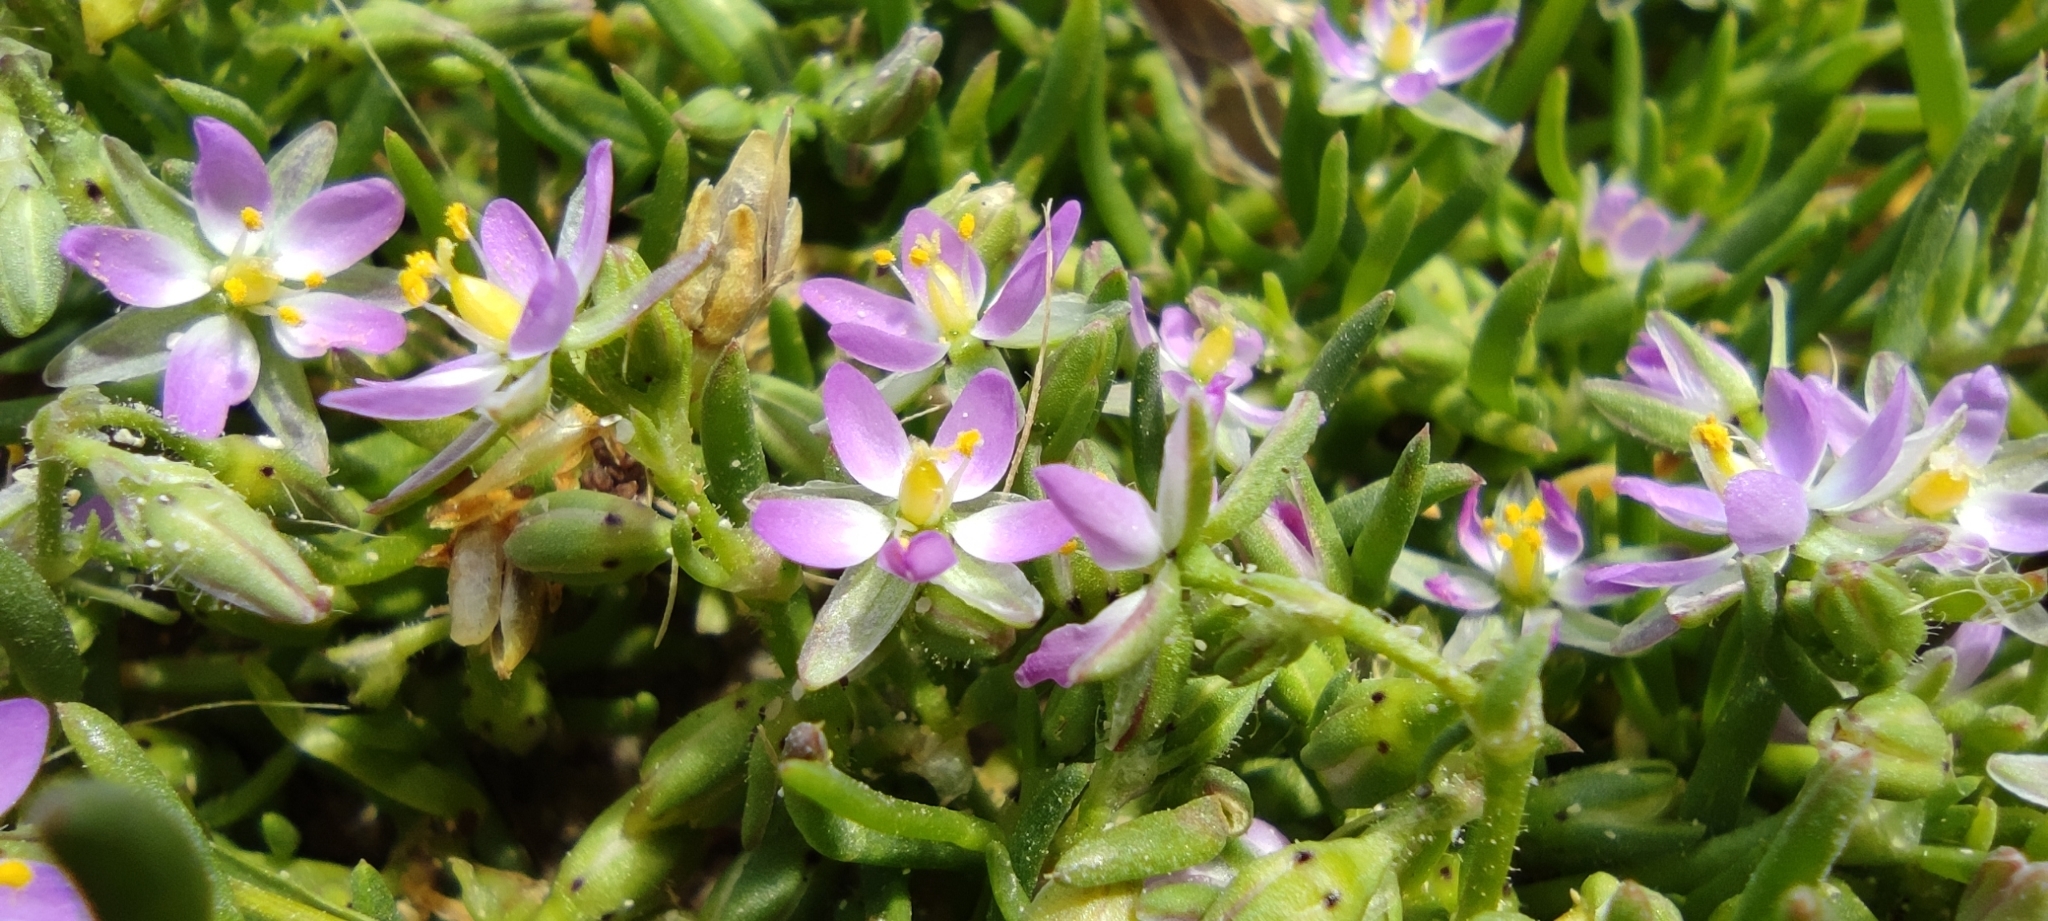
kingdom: Plantae
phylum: Tracheophyta
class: Magnoliopsida
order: Caryophyllales
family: Caryophyllaceae
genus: Spergularia
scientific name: Spergularia marina
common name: Lesser sea-spurrey
